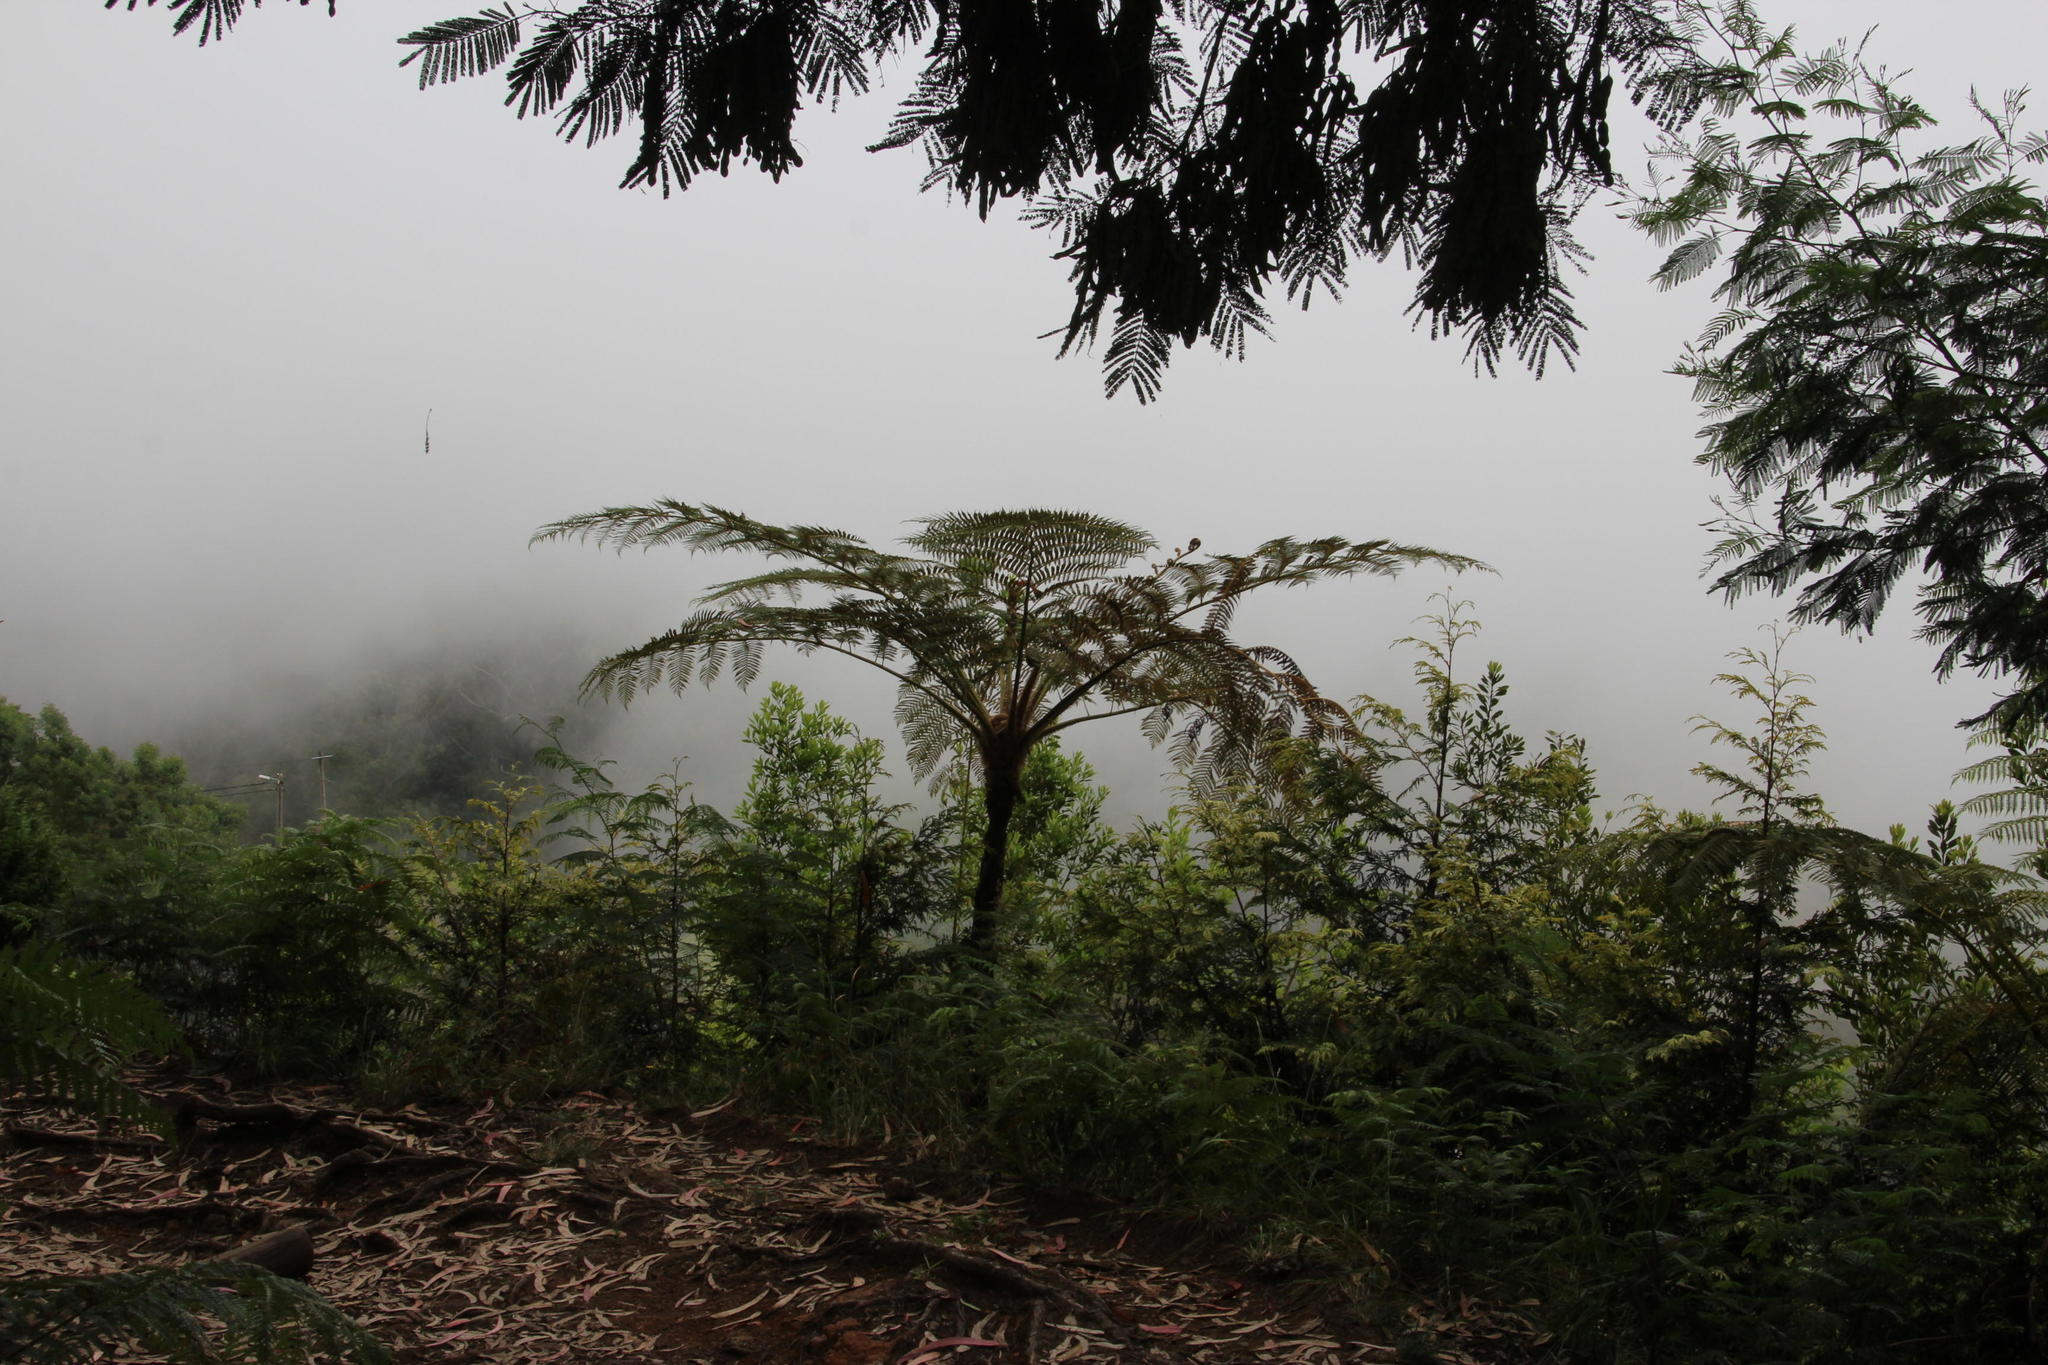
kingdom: Plantae
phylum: Tracheophyta
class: Polypodiopsida
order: Cyatheales
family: Cyatheaceae
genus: Sphaeropteris
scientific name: Sphaeropteris cooperi
